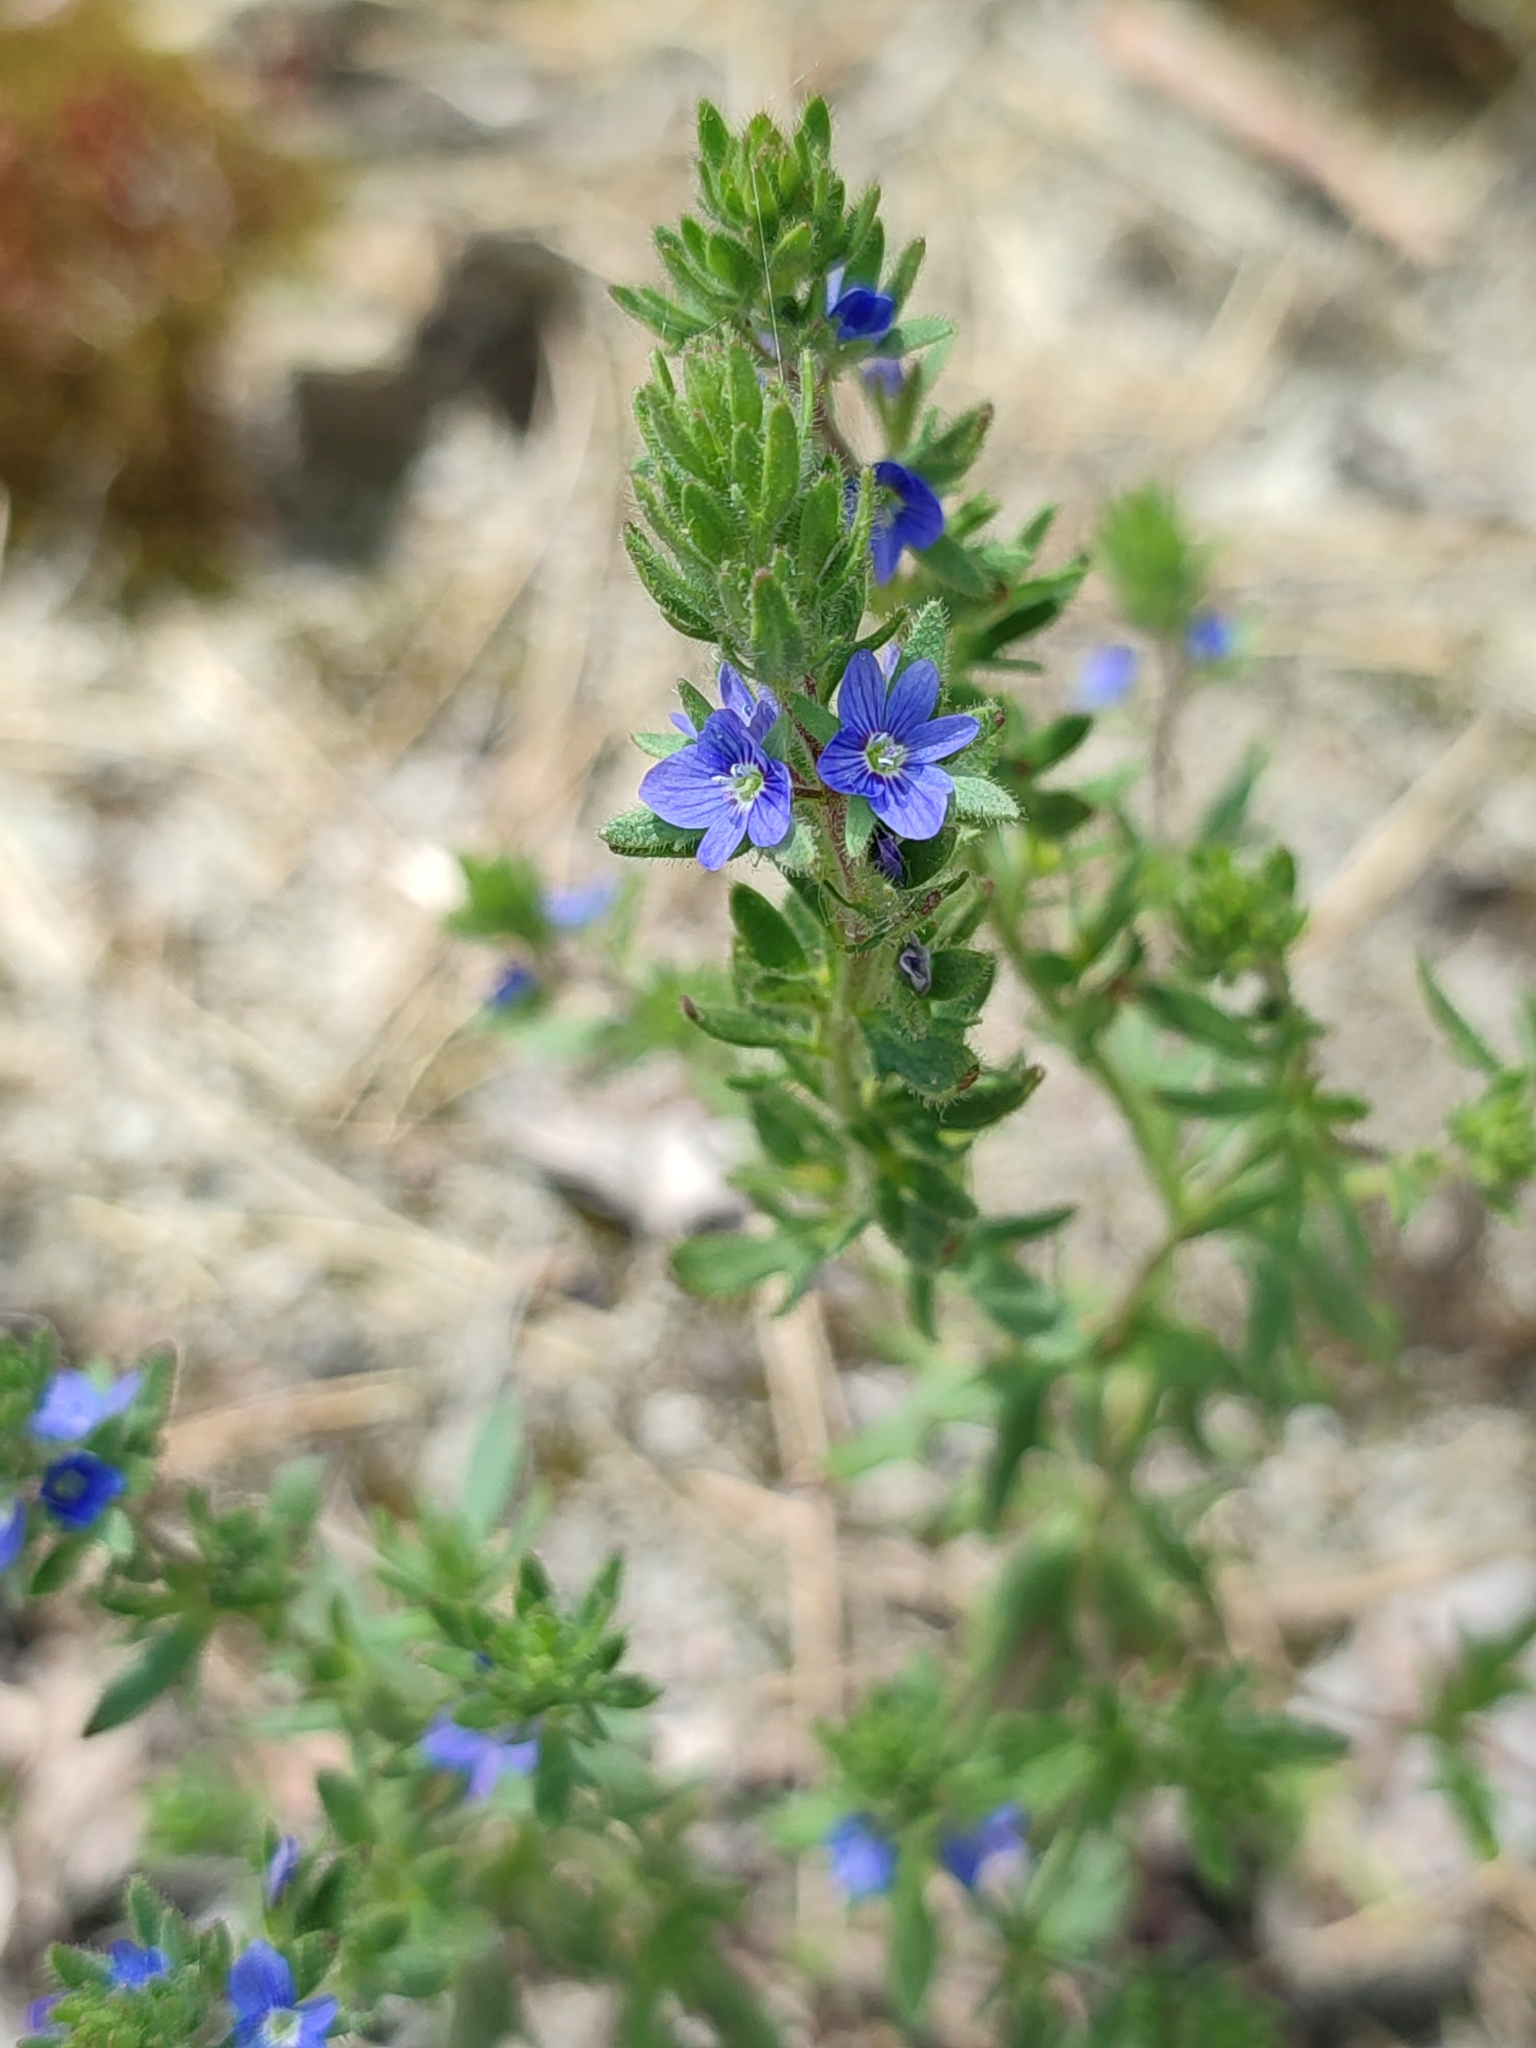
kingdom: Plantae
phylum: Tracheophyta
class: Magnoliopsida
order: Lamiales
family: Plantaginaceae
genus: Veronica
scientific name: Veronica verna
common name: Spring speedwell
